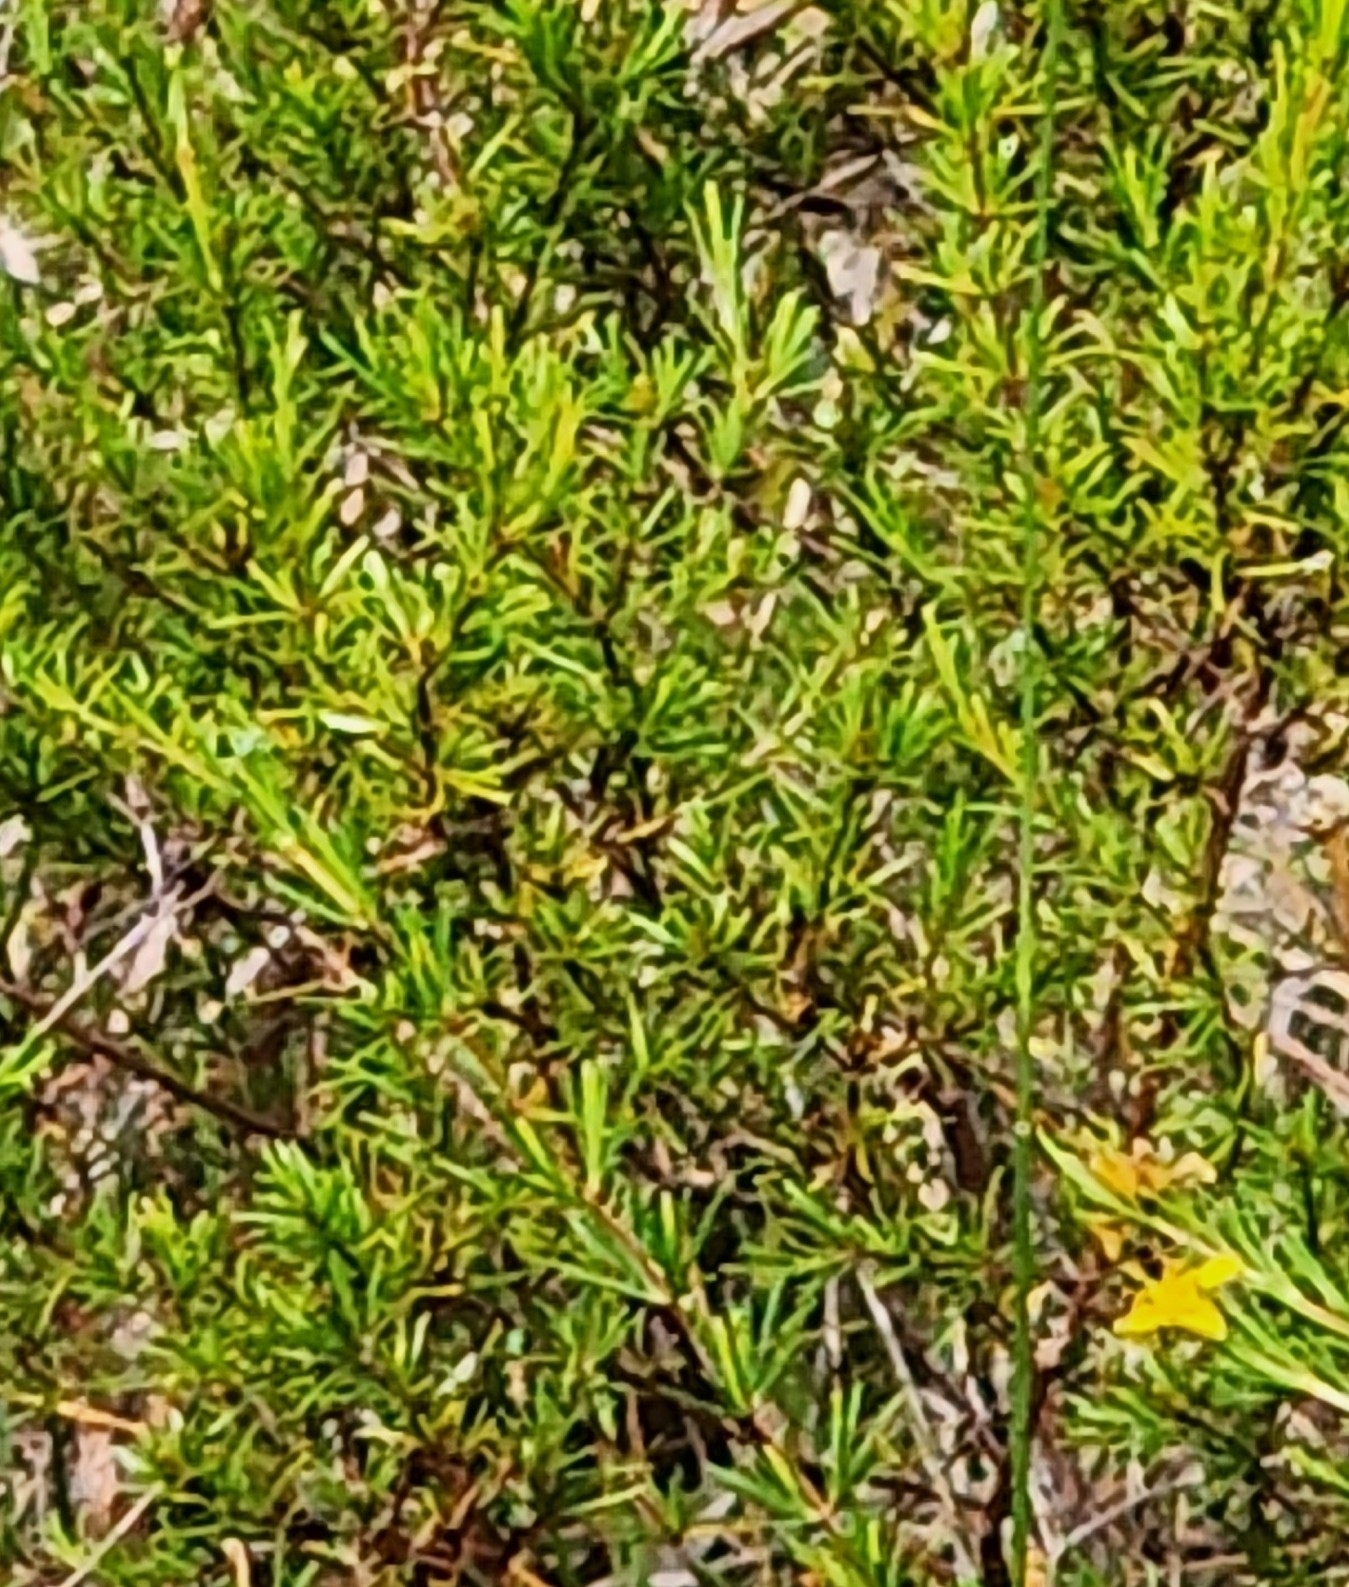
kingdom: Plantae
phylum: Tracheophyta
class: Magnoliopsida
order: Malpighiales
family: Hypericaceae
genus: Hypericum
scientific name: Hypericum fasciculatum
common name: Peelbark st. john's wort
